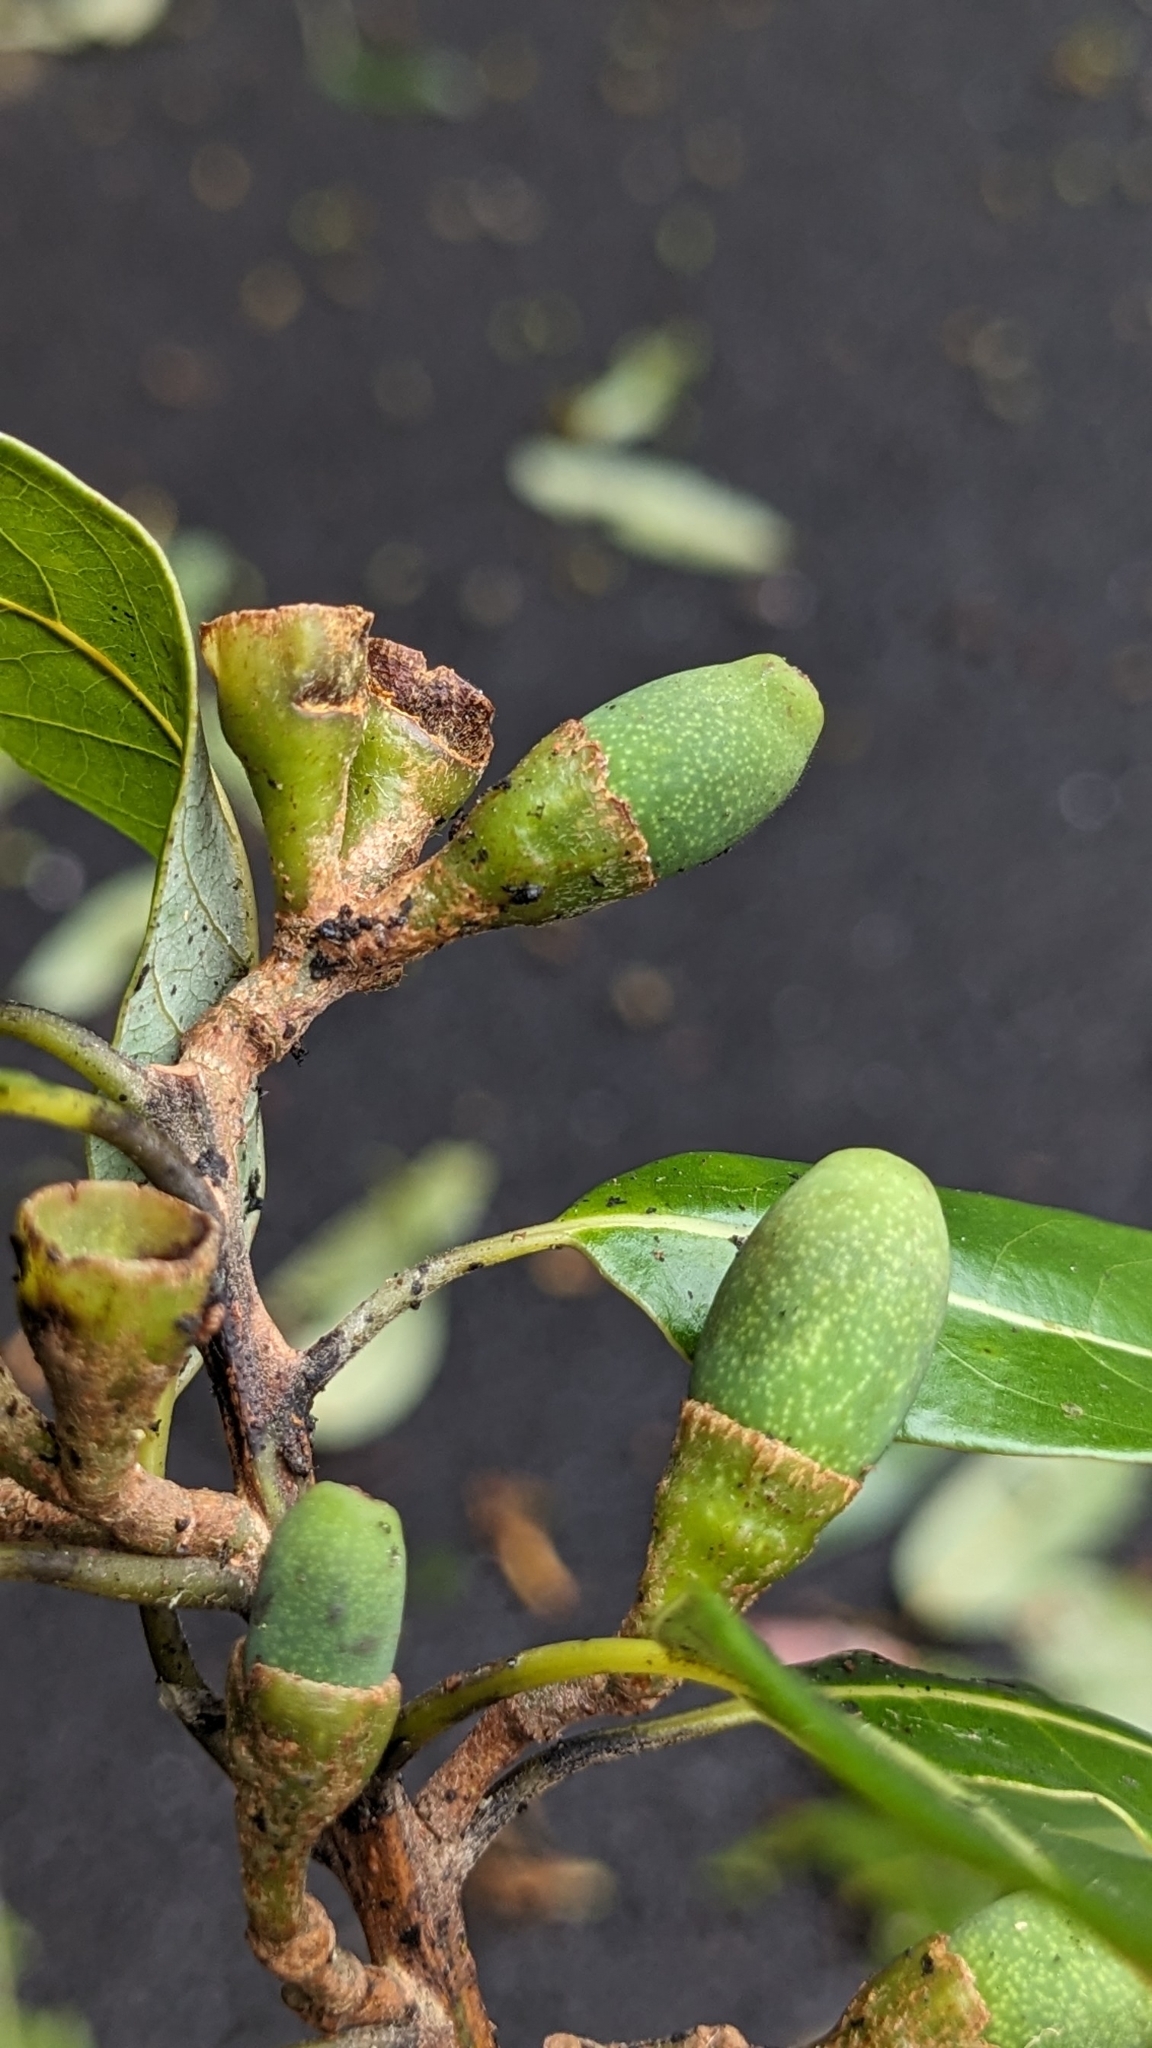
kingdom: Plantae
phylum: Tracheophyta
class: Magnoliopsida
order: Laurales
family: Lauraceae
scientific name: Lauraceae
